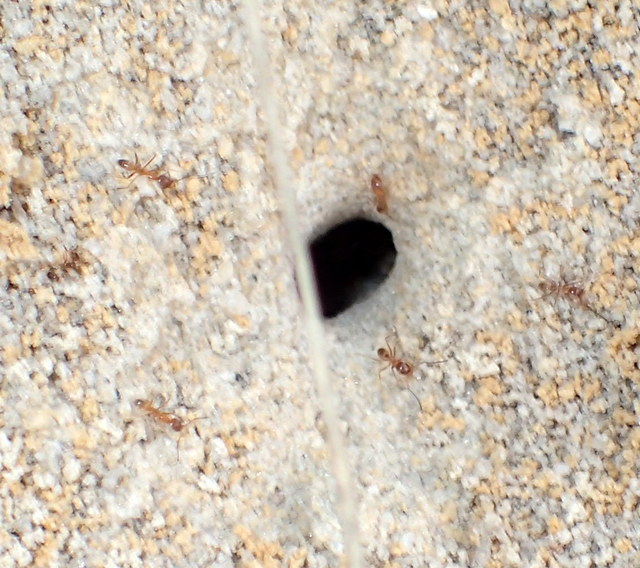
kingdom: Animalia
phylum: Arthropoda
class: Insecta
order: Hymenoptera
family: Formicidae
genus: Dorymyrmex
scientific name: Dorymyrmex bureni
